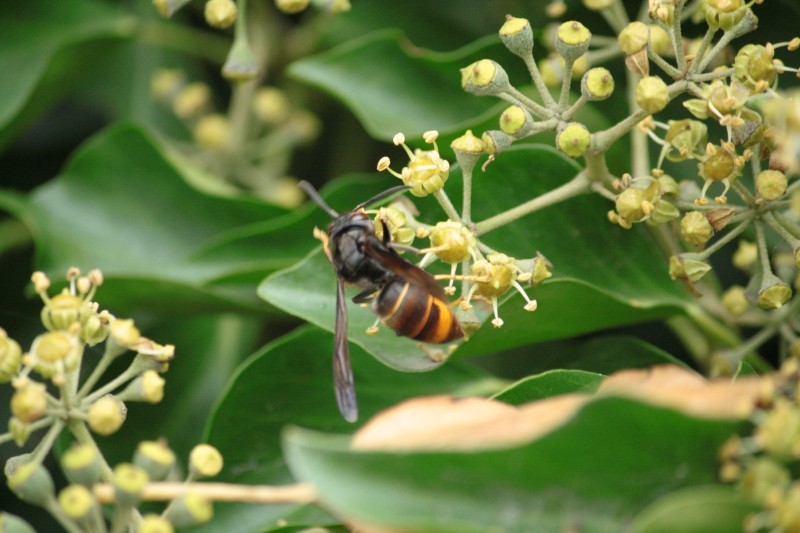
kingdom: Animalia
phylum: Arthropoda
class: Insecta
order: Hymenoptera
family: Vespidae
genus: Vespa
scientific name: Vespa velutina
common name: Asian hornet
